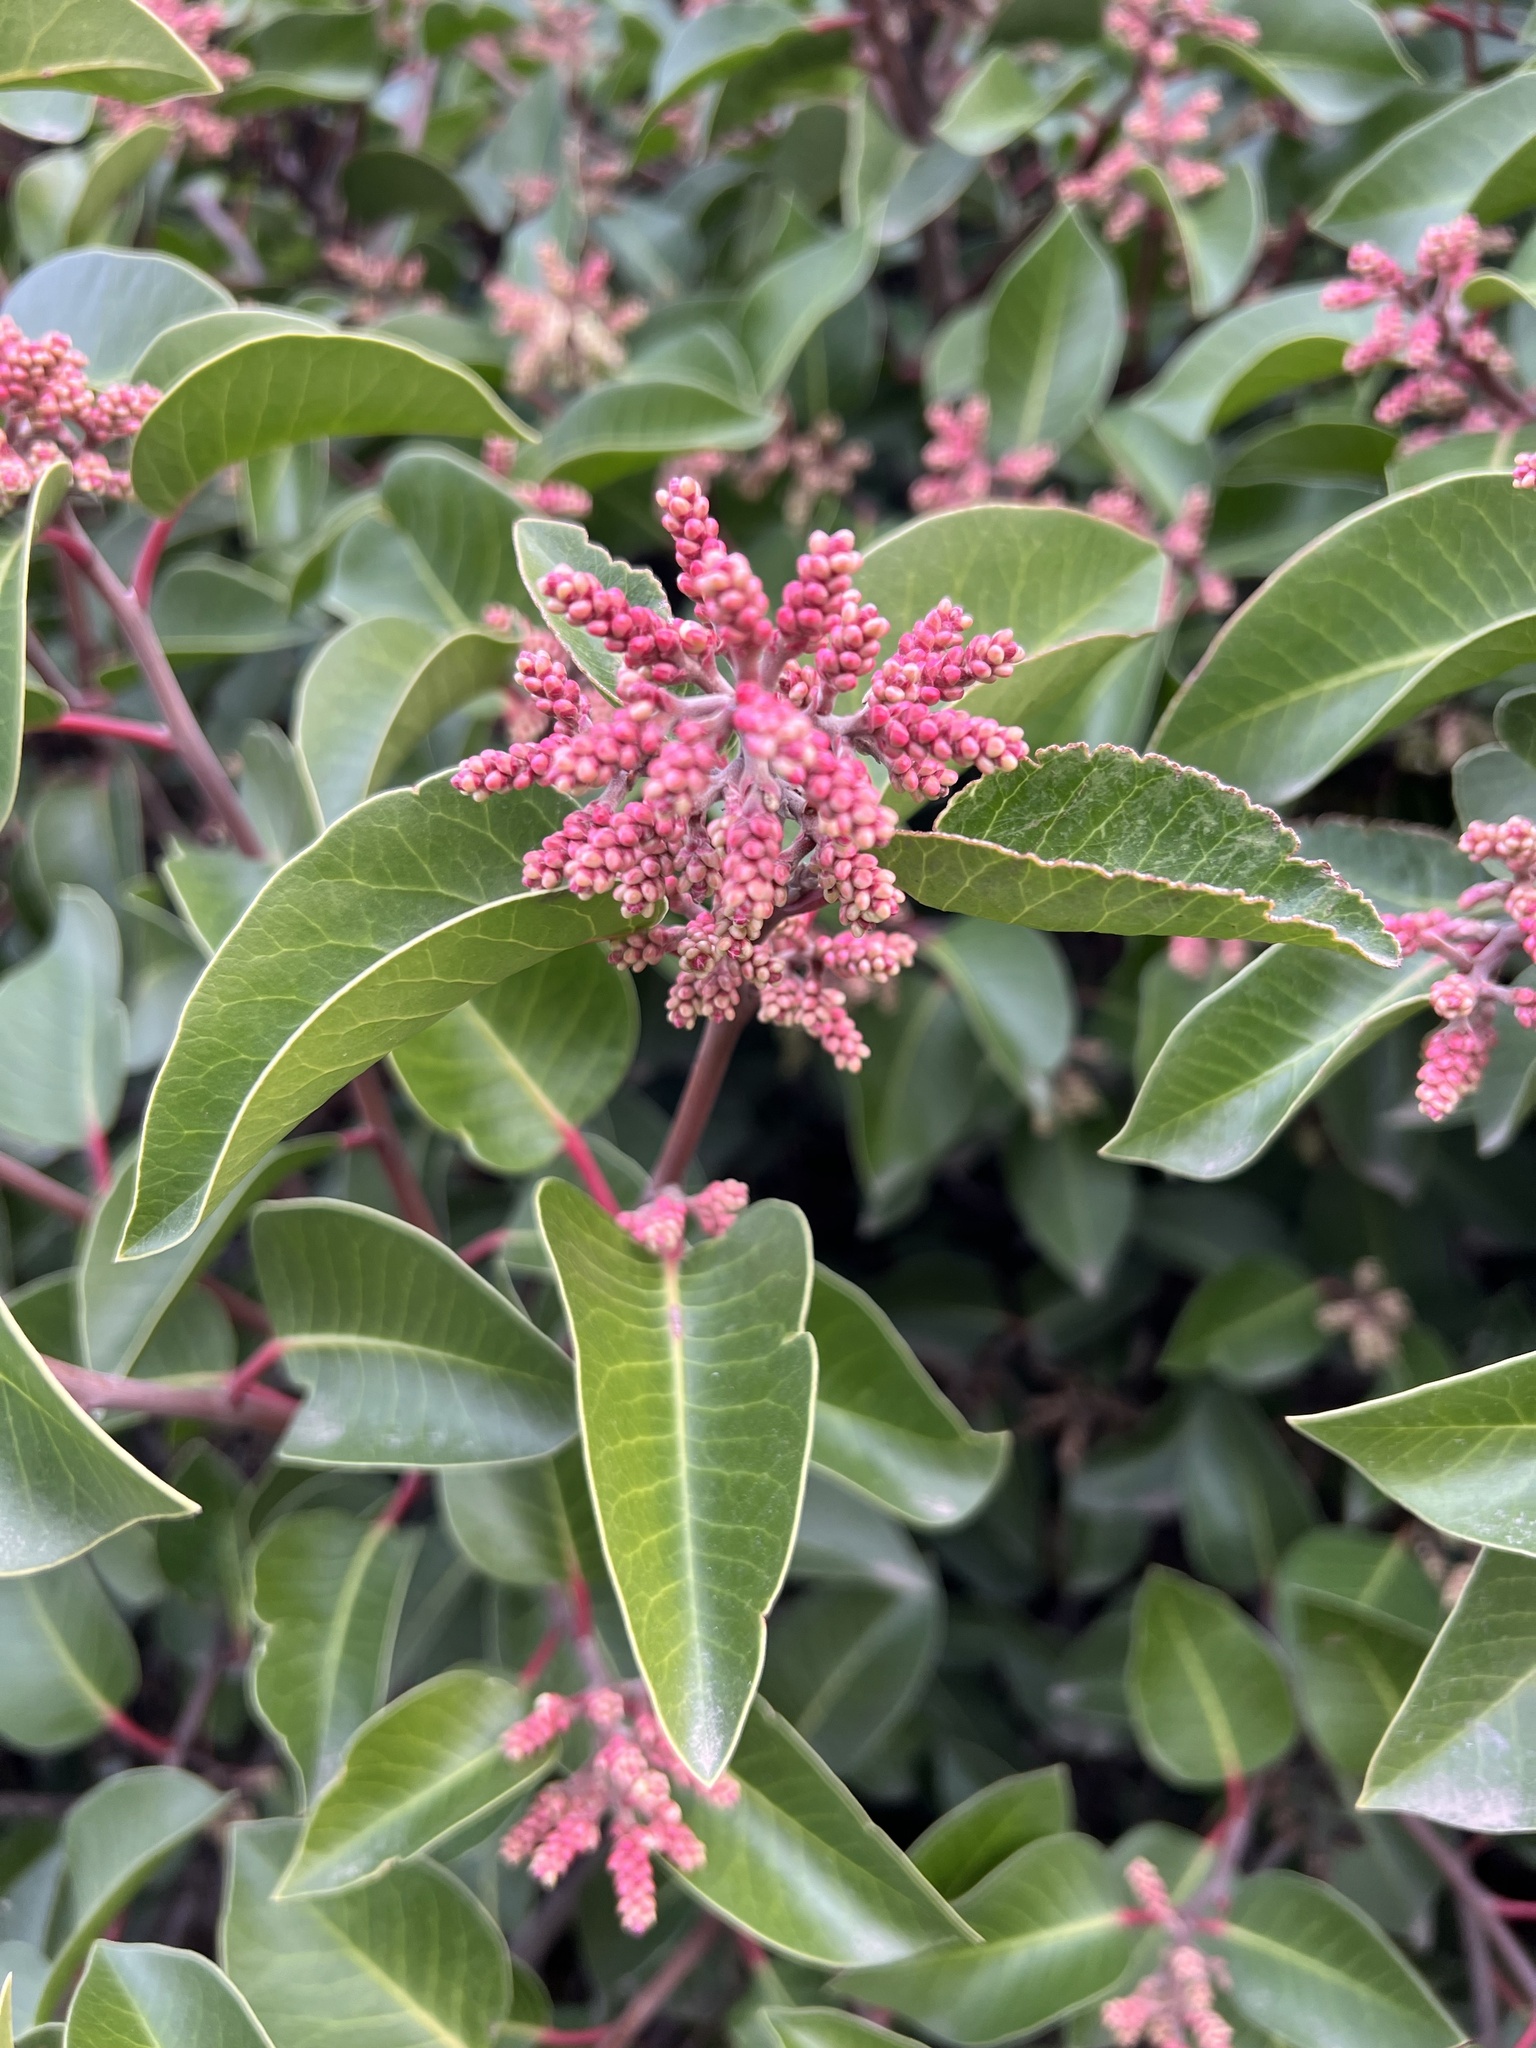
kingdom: Plantae
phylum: Tracheophyta
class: Magnoliopsida
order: Sapindales
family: Anacardiaceae
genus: Rhus
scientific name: Rhus ovata
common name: Sugar sumac
